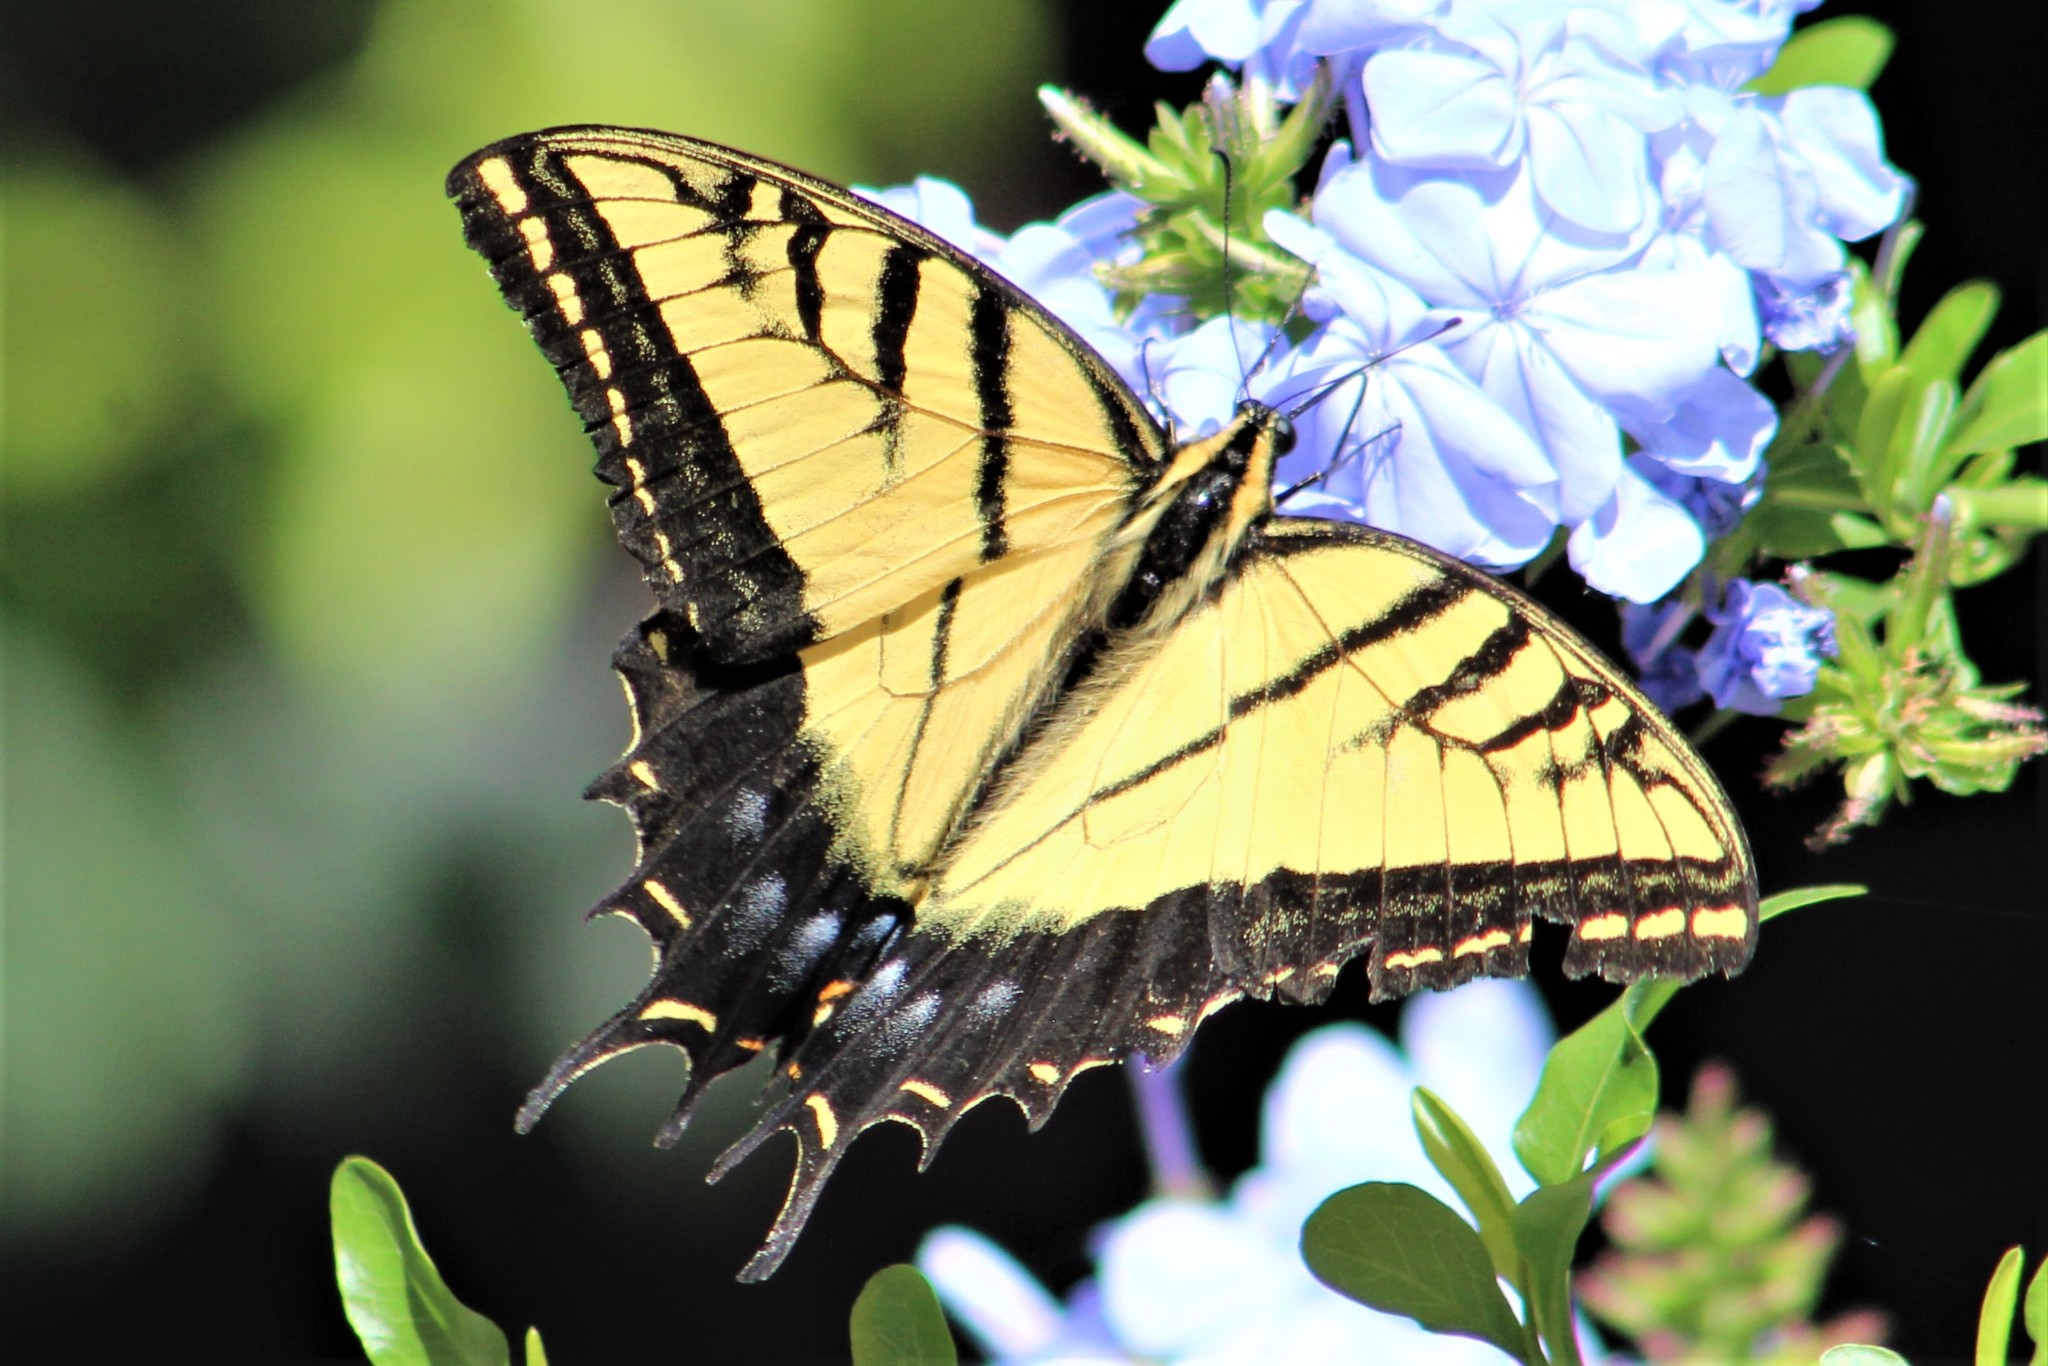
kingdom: Animalia
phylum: Arthropoda
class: Insecta
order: Lepidoptera
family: Papilionidae
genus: Papilio
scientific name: Papilio multicaudata
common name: Two-tailed tiger swallowtail
